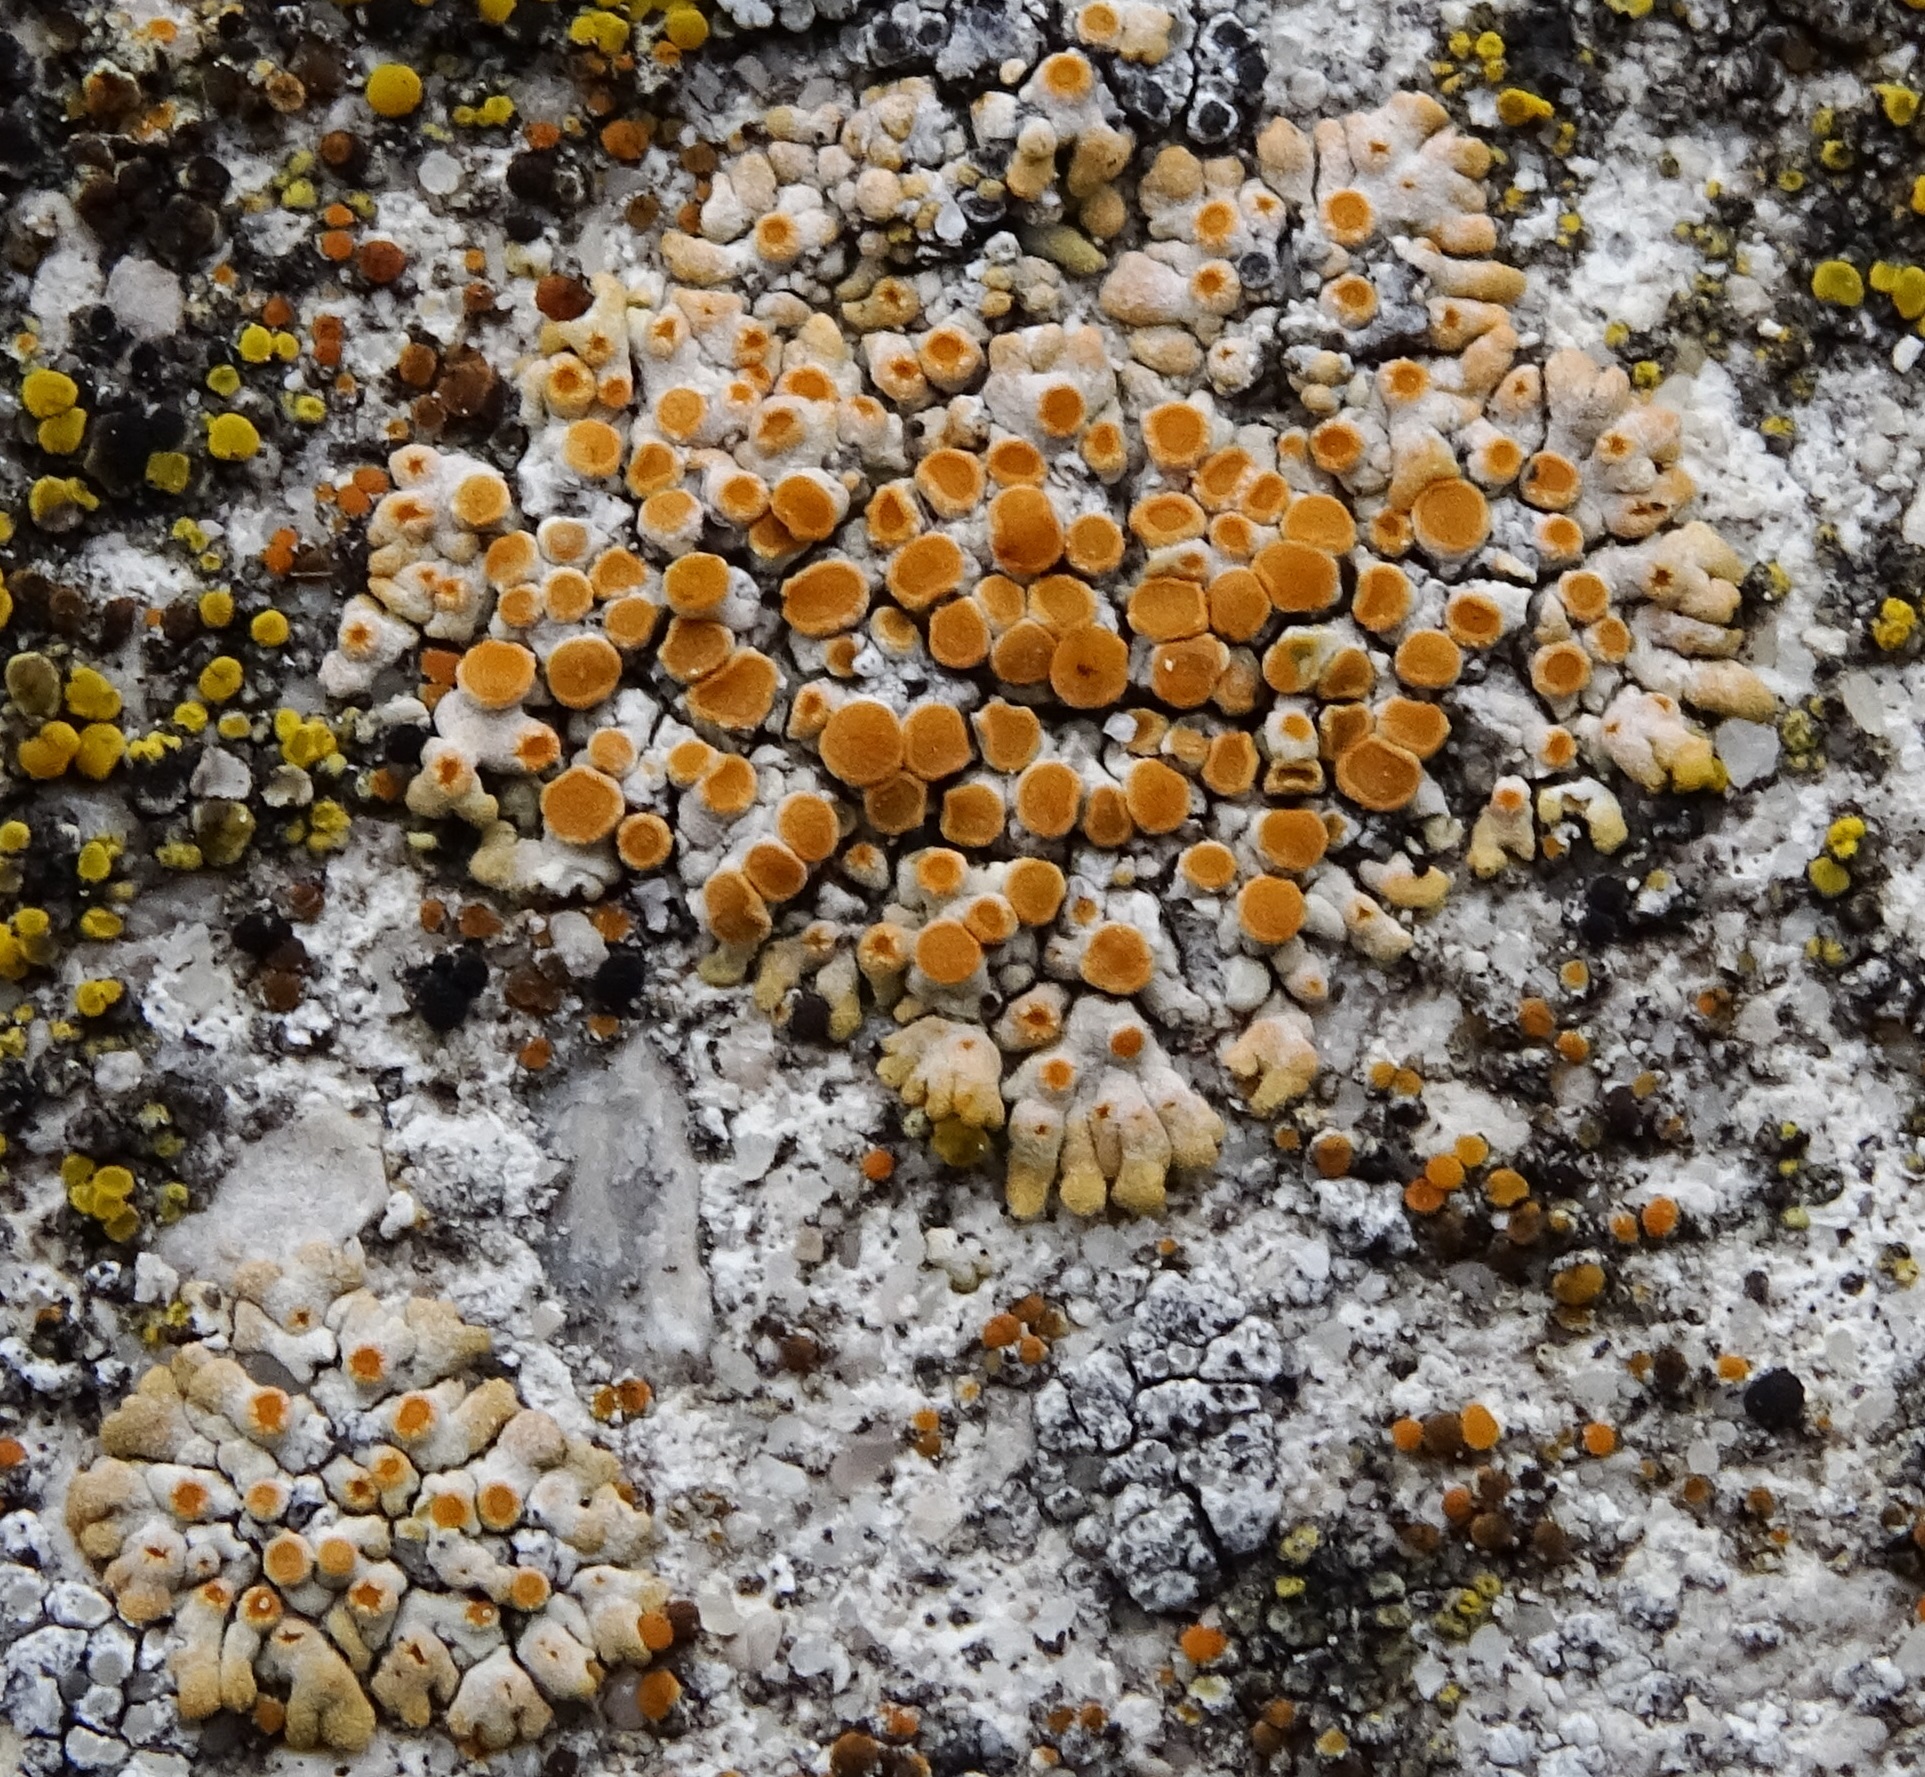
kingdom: Fungi
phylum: Ascomycota
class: Lecanoromycetes
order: Teloschistales
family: Teloschistaceae
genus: Calogaya
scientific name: Calogaya pusilla
